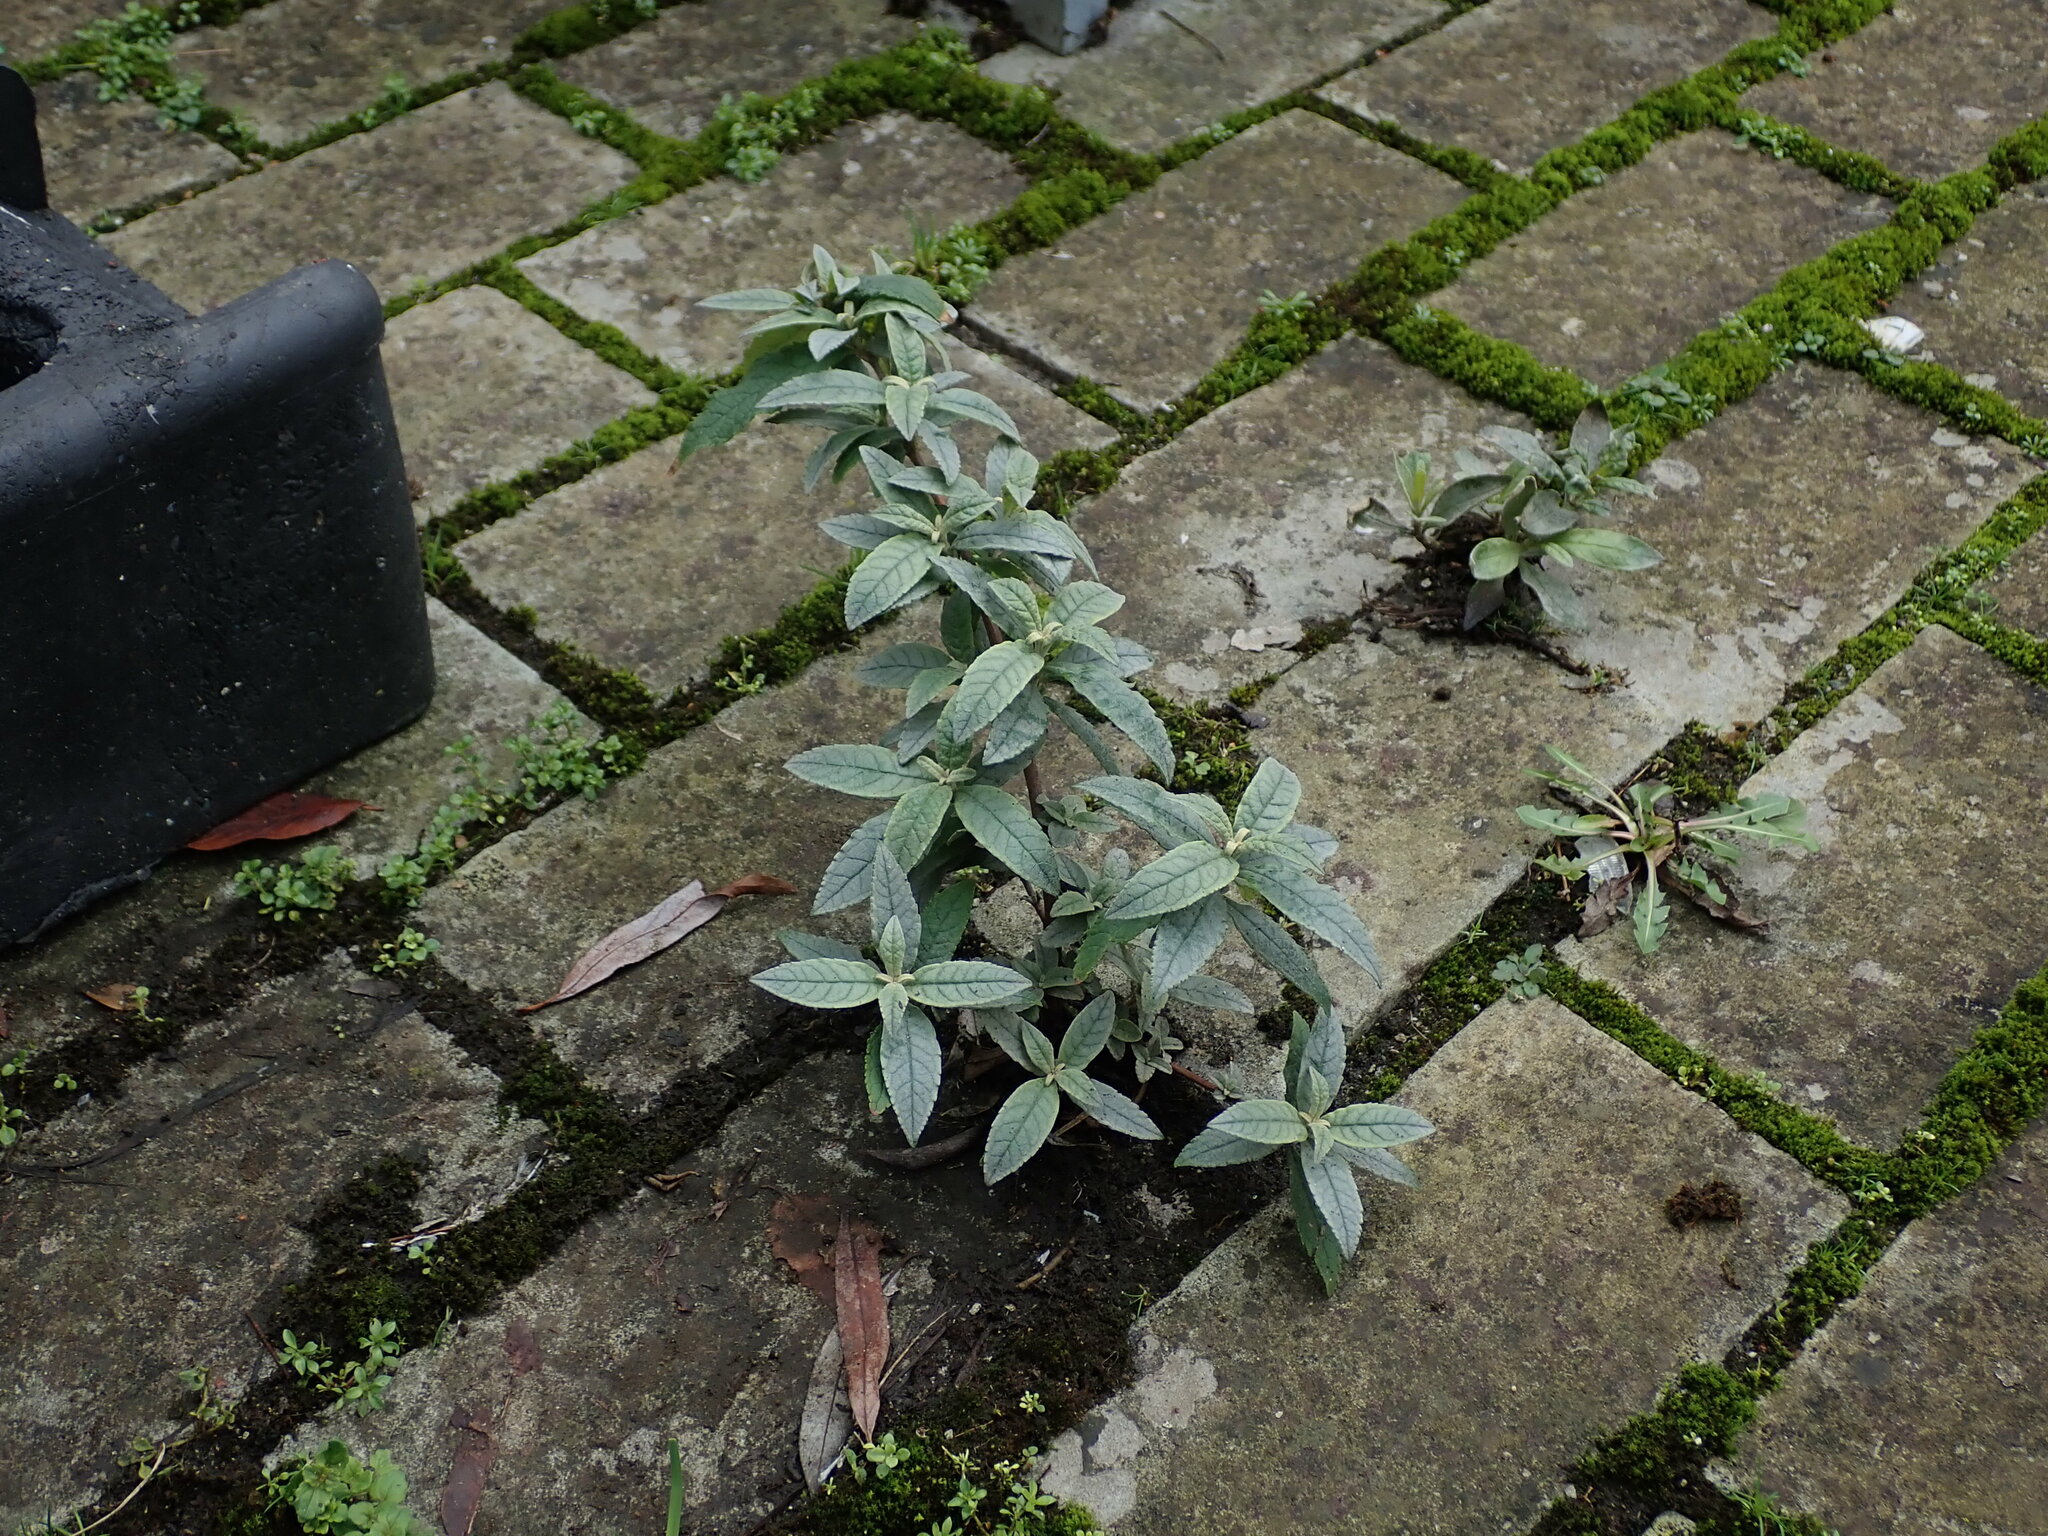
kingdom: Plantae
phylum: Tracheophyta
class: Magnoliopsida
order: Lamiales
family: Scrophulariaceae
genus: Buddleja
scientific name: Buddleja davidii
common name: Butterfly-bush
